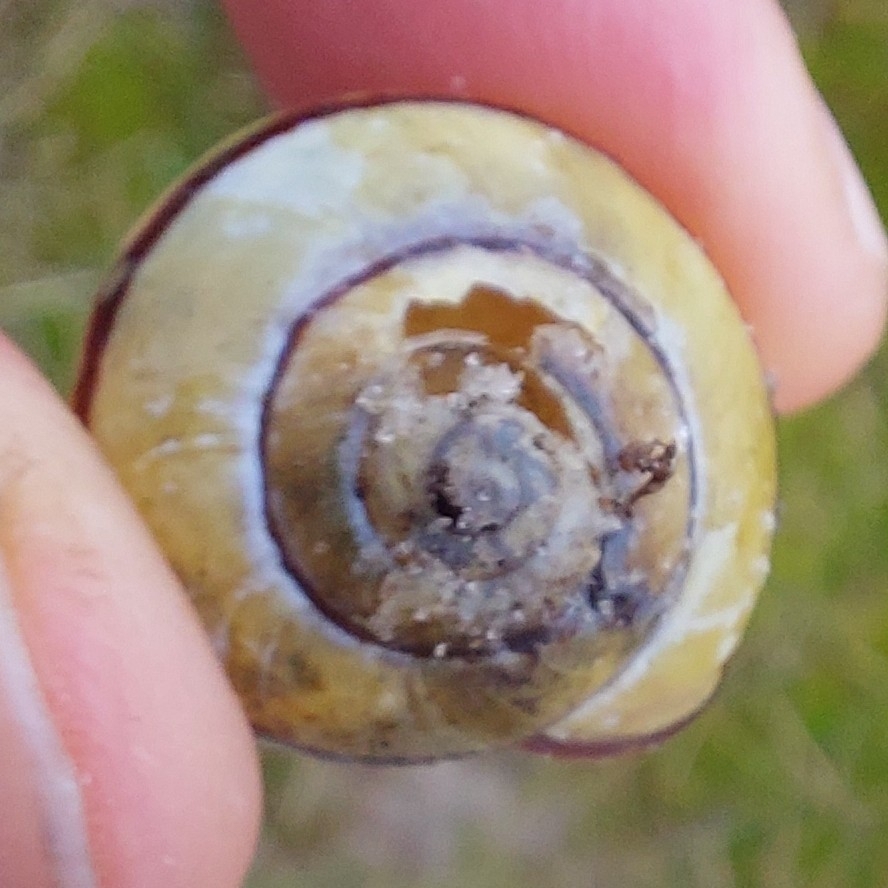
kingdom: Animalia
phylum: Mollusca
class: Gastropoda
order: Stylommatophora
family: Helicidae
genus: Cepaea
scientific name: Cepaea nemoralis
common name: Grovesnail
